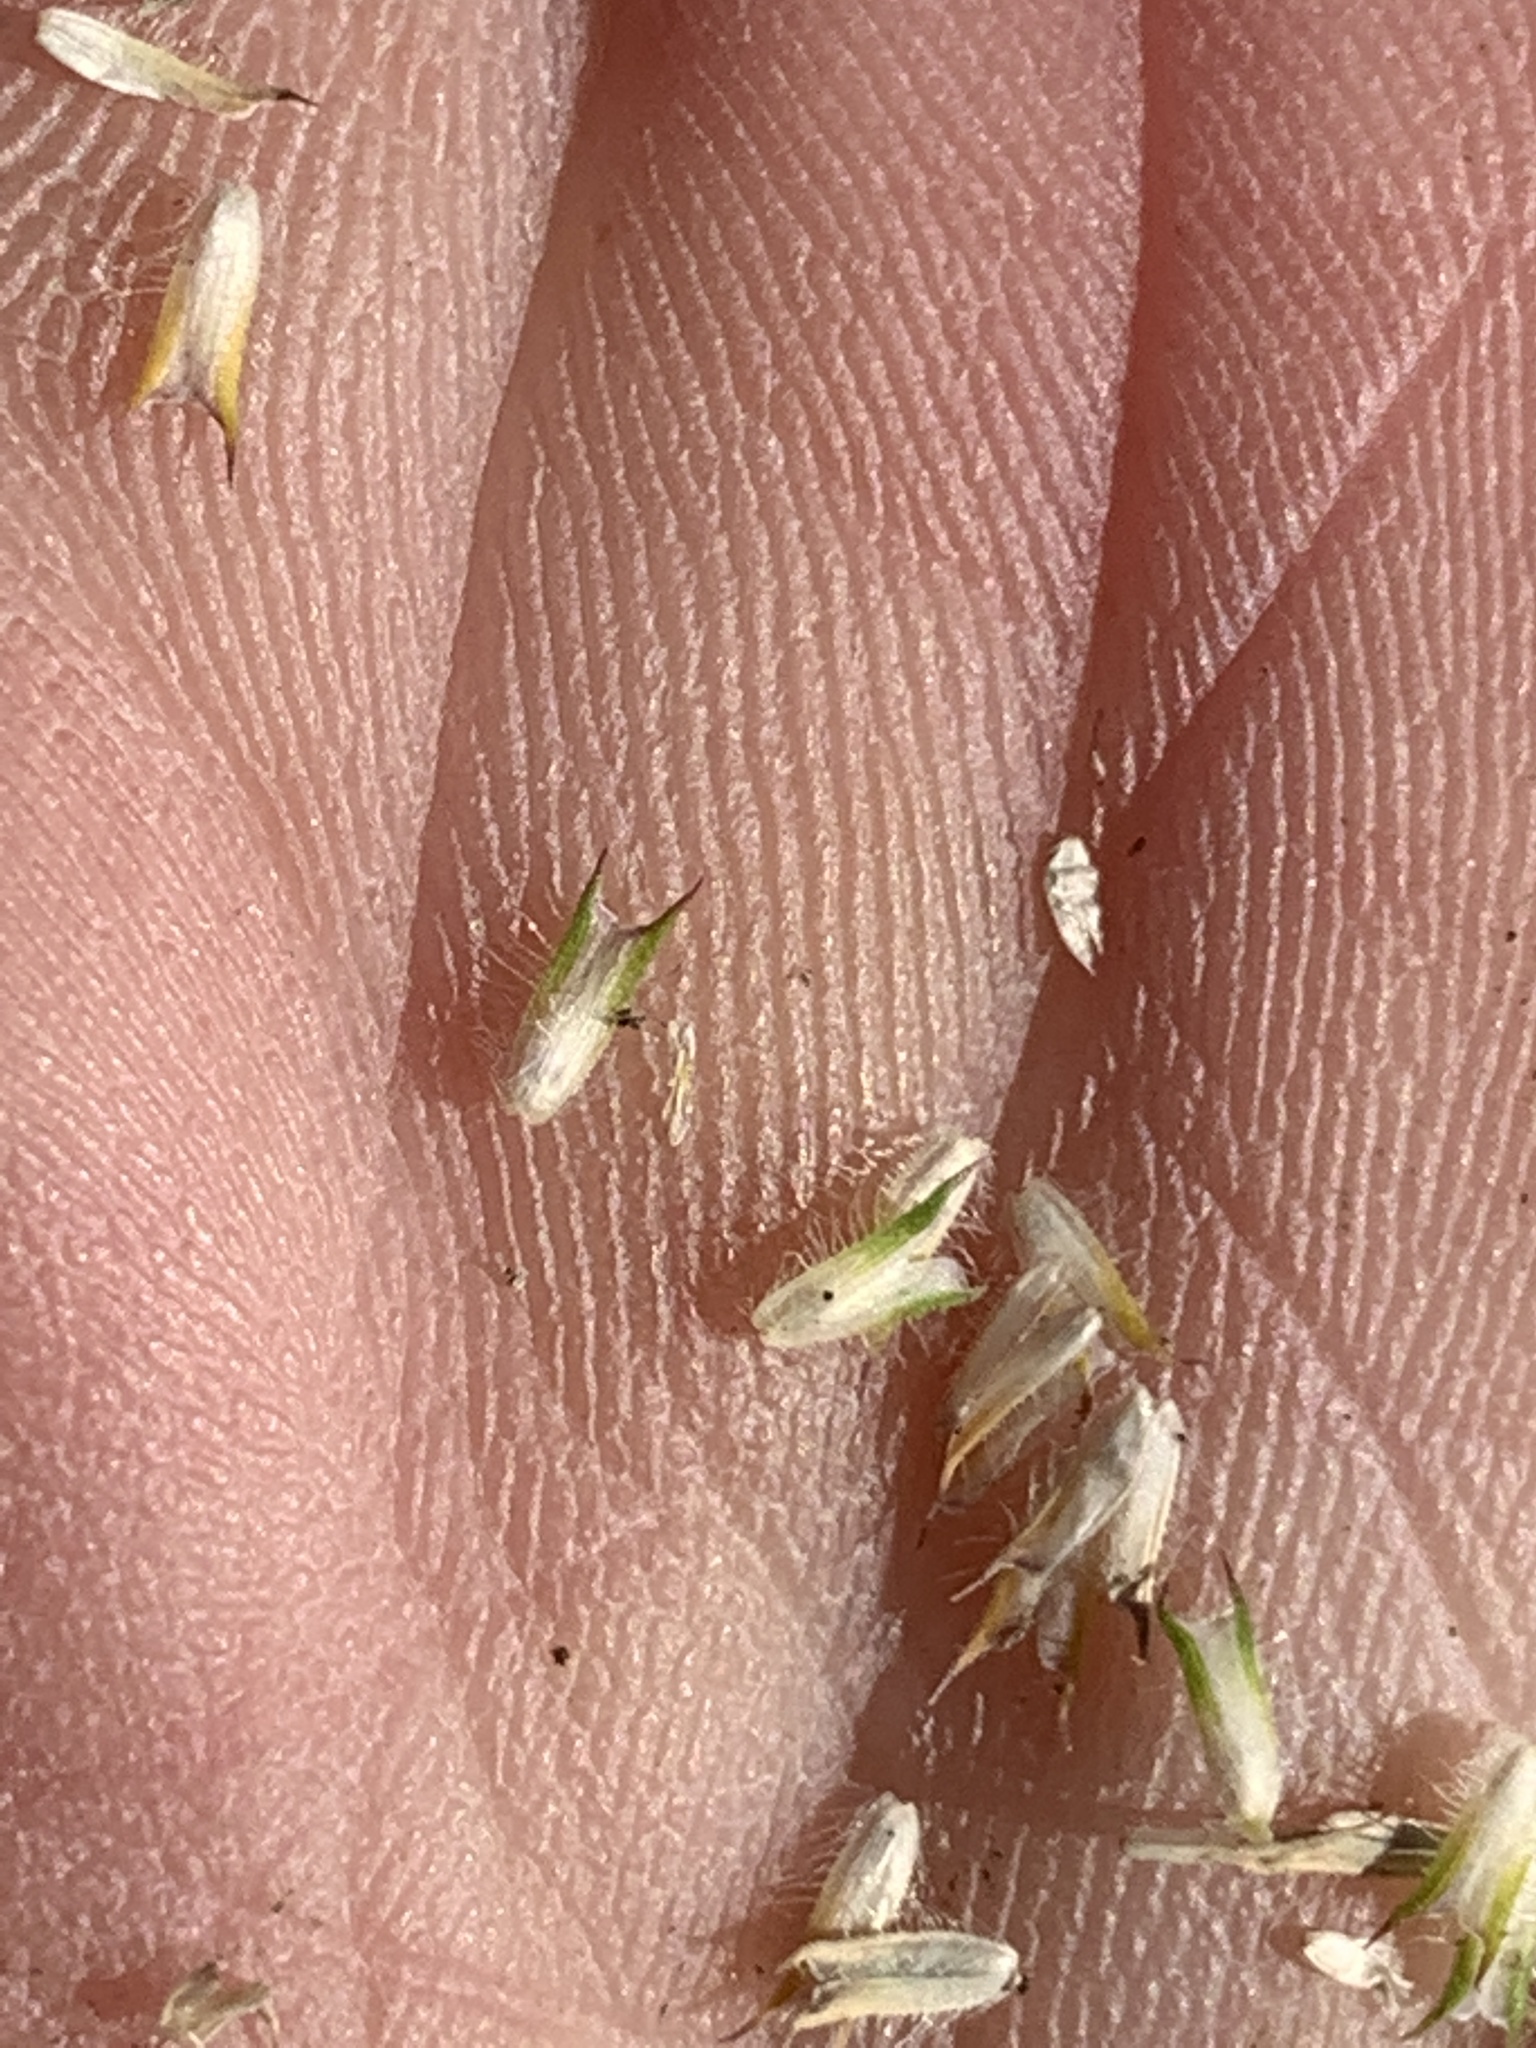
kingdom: Plantae
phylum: Tracheophyta
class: Liliopsida
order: Poales
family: Poaceae
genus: Phleum
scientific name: Phleum pratense
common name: Timothy grass
